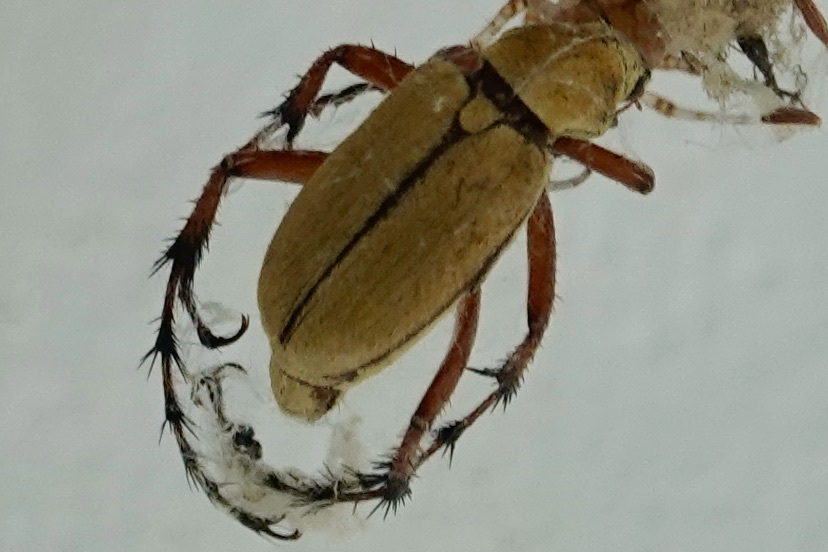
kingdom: Animalia
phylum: Arthropoda
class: Insecta
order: Coleoptera
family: Scarabaeidae
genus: Macrodactylus
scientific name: Macrodactylus subspinosus
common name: American rose chafer
